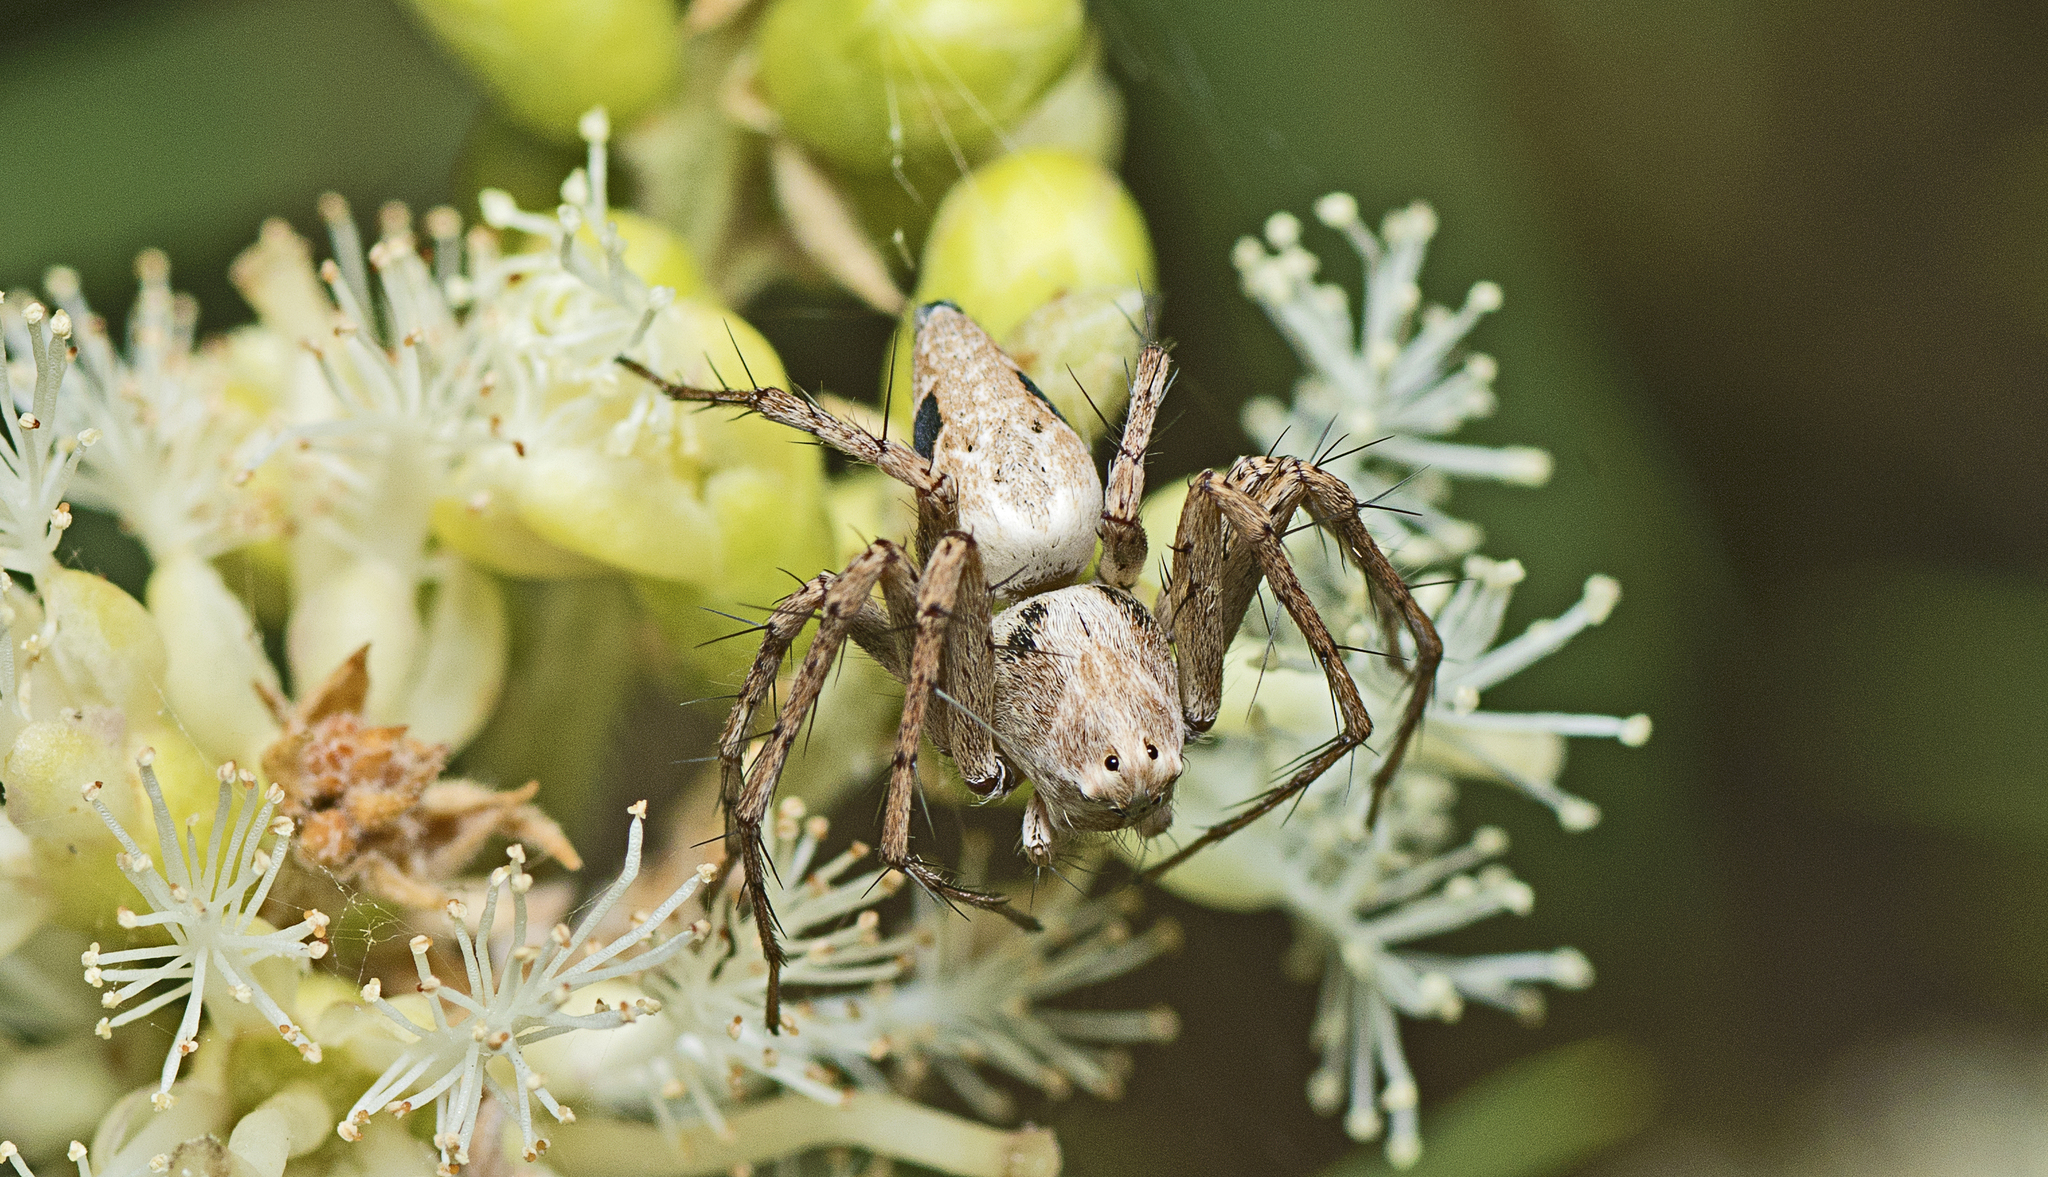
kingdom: Animalia
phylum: Arthropoda
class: Arachnida
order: Araneae
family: Oxyopidae
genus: Oxyopes
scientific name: Oxyopes variabilis
